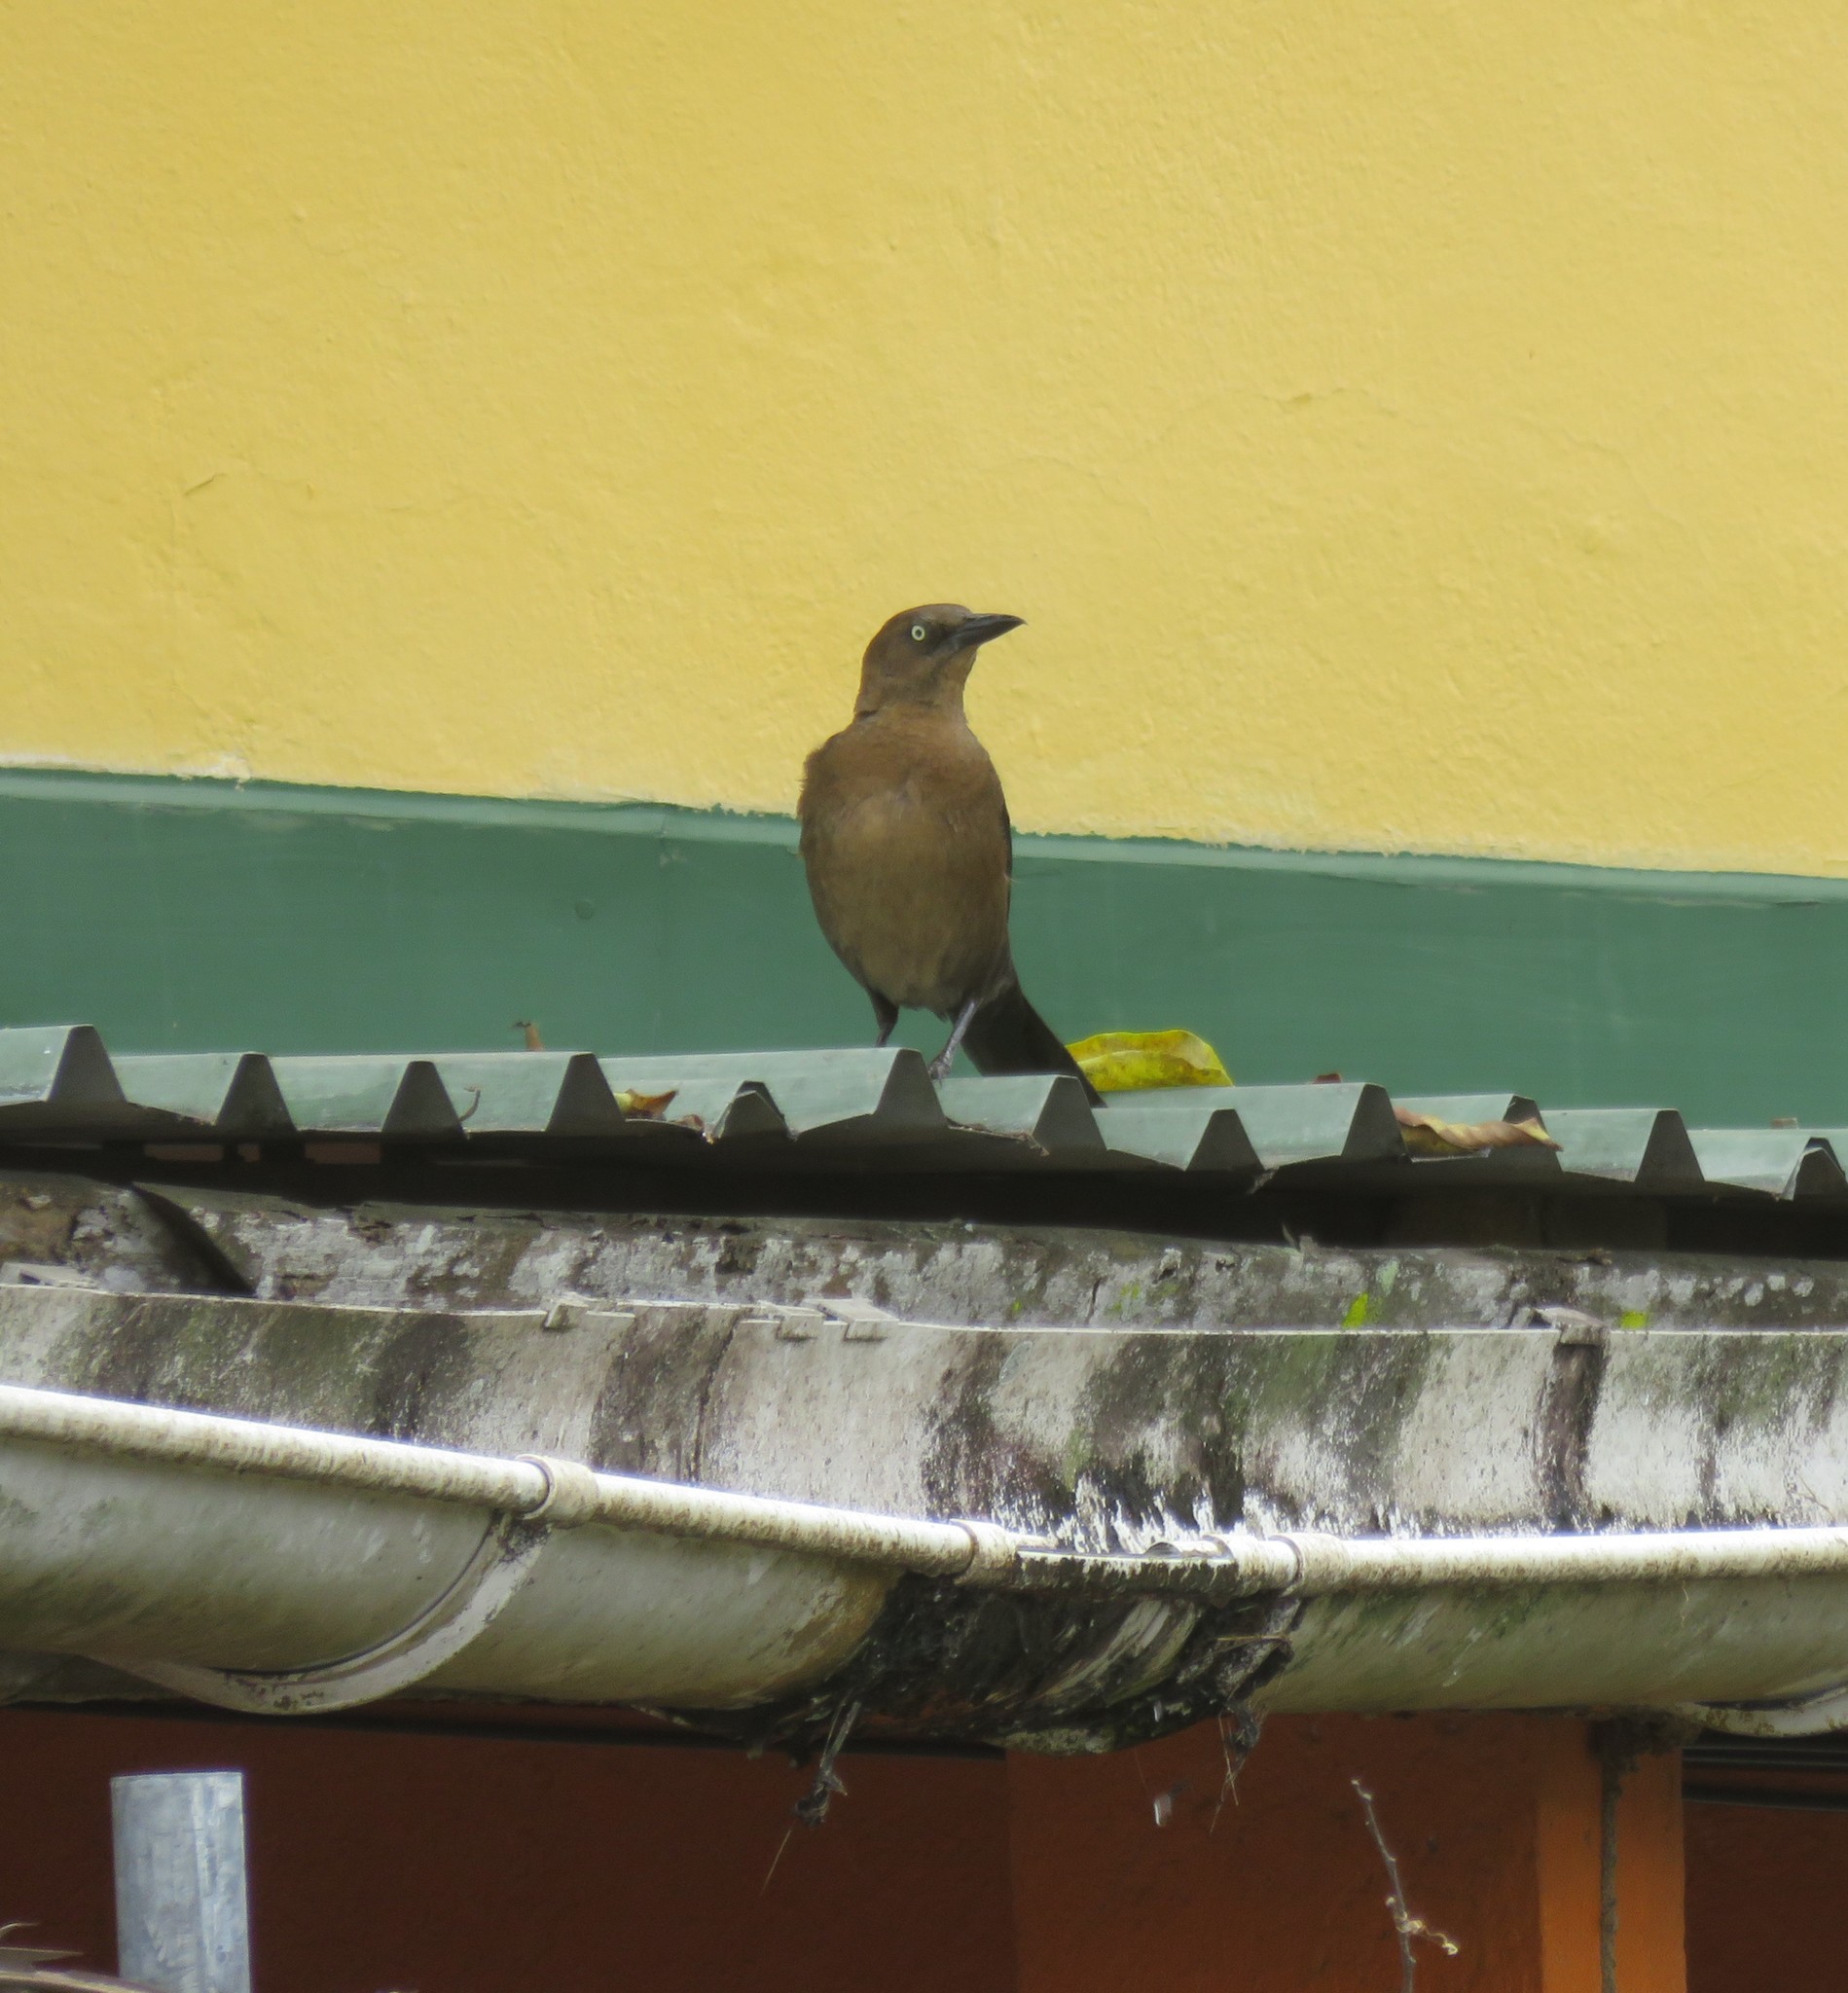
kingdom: Animalia
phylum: Chordata
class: Aves
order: Passeriformes
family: Icteridae
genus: Quiscalus
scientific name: Quiscalus mexicanus
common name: Great-tailed grackle
